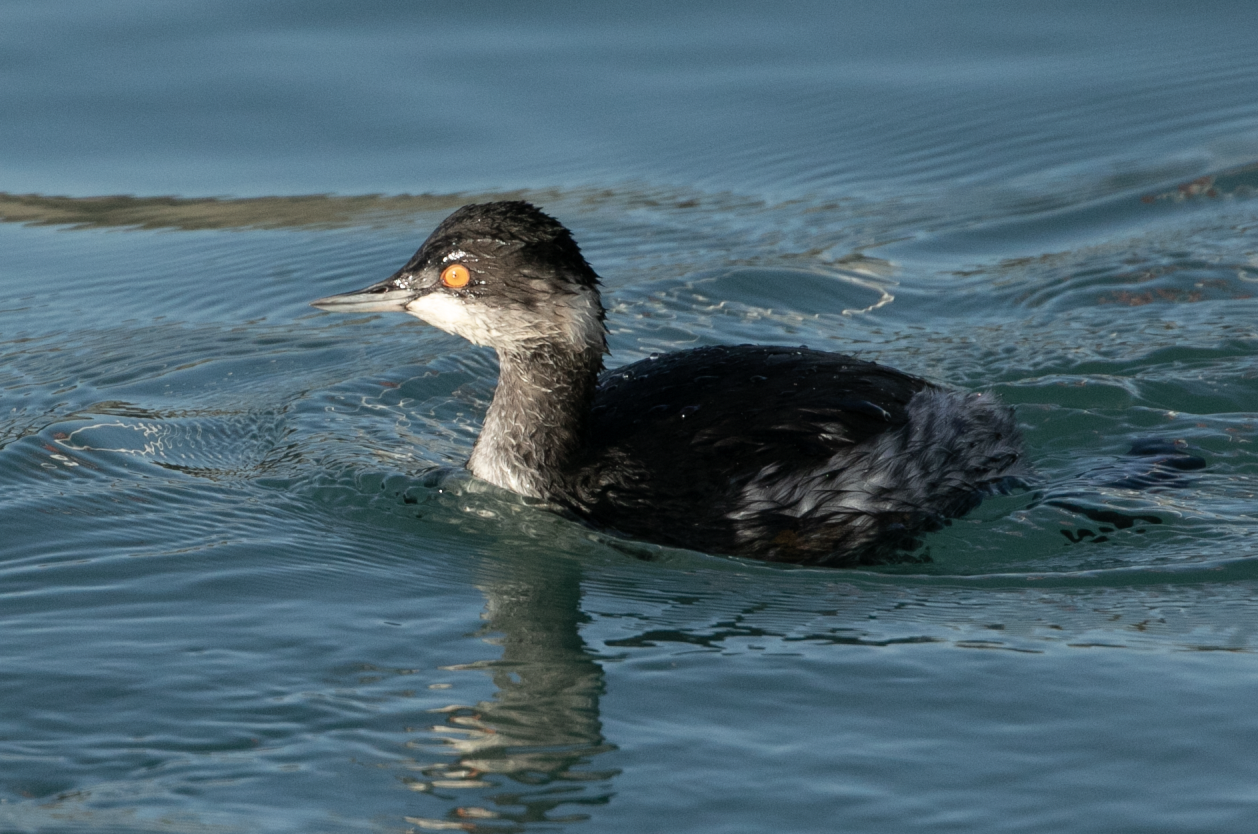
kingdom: Animalia
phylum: Chordata
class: Aves
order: Podicipediformes
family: Podicipedidae
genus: Podiceps
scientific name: Podiceps nigricollis
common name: Black-necked grebe
